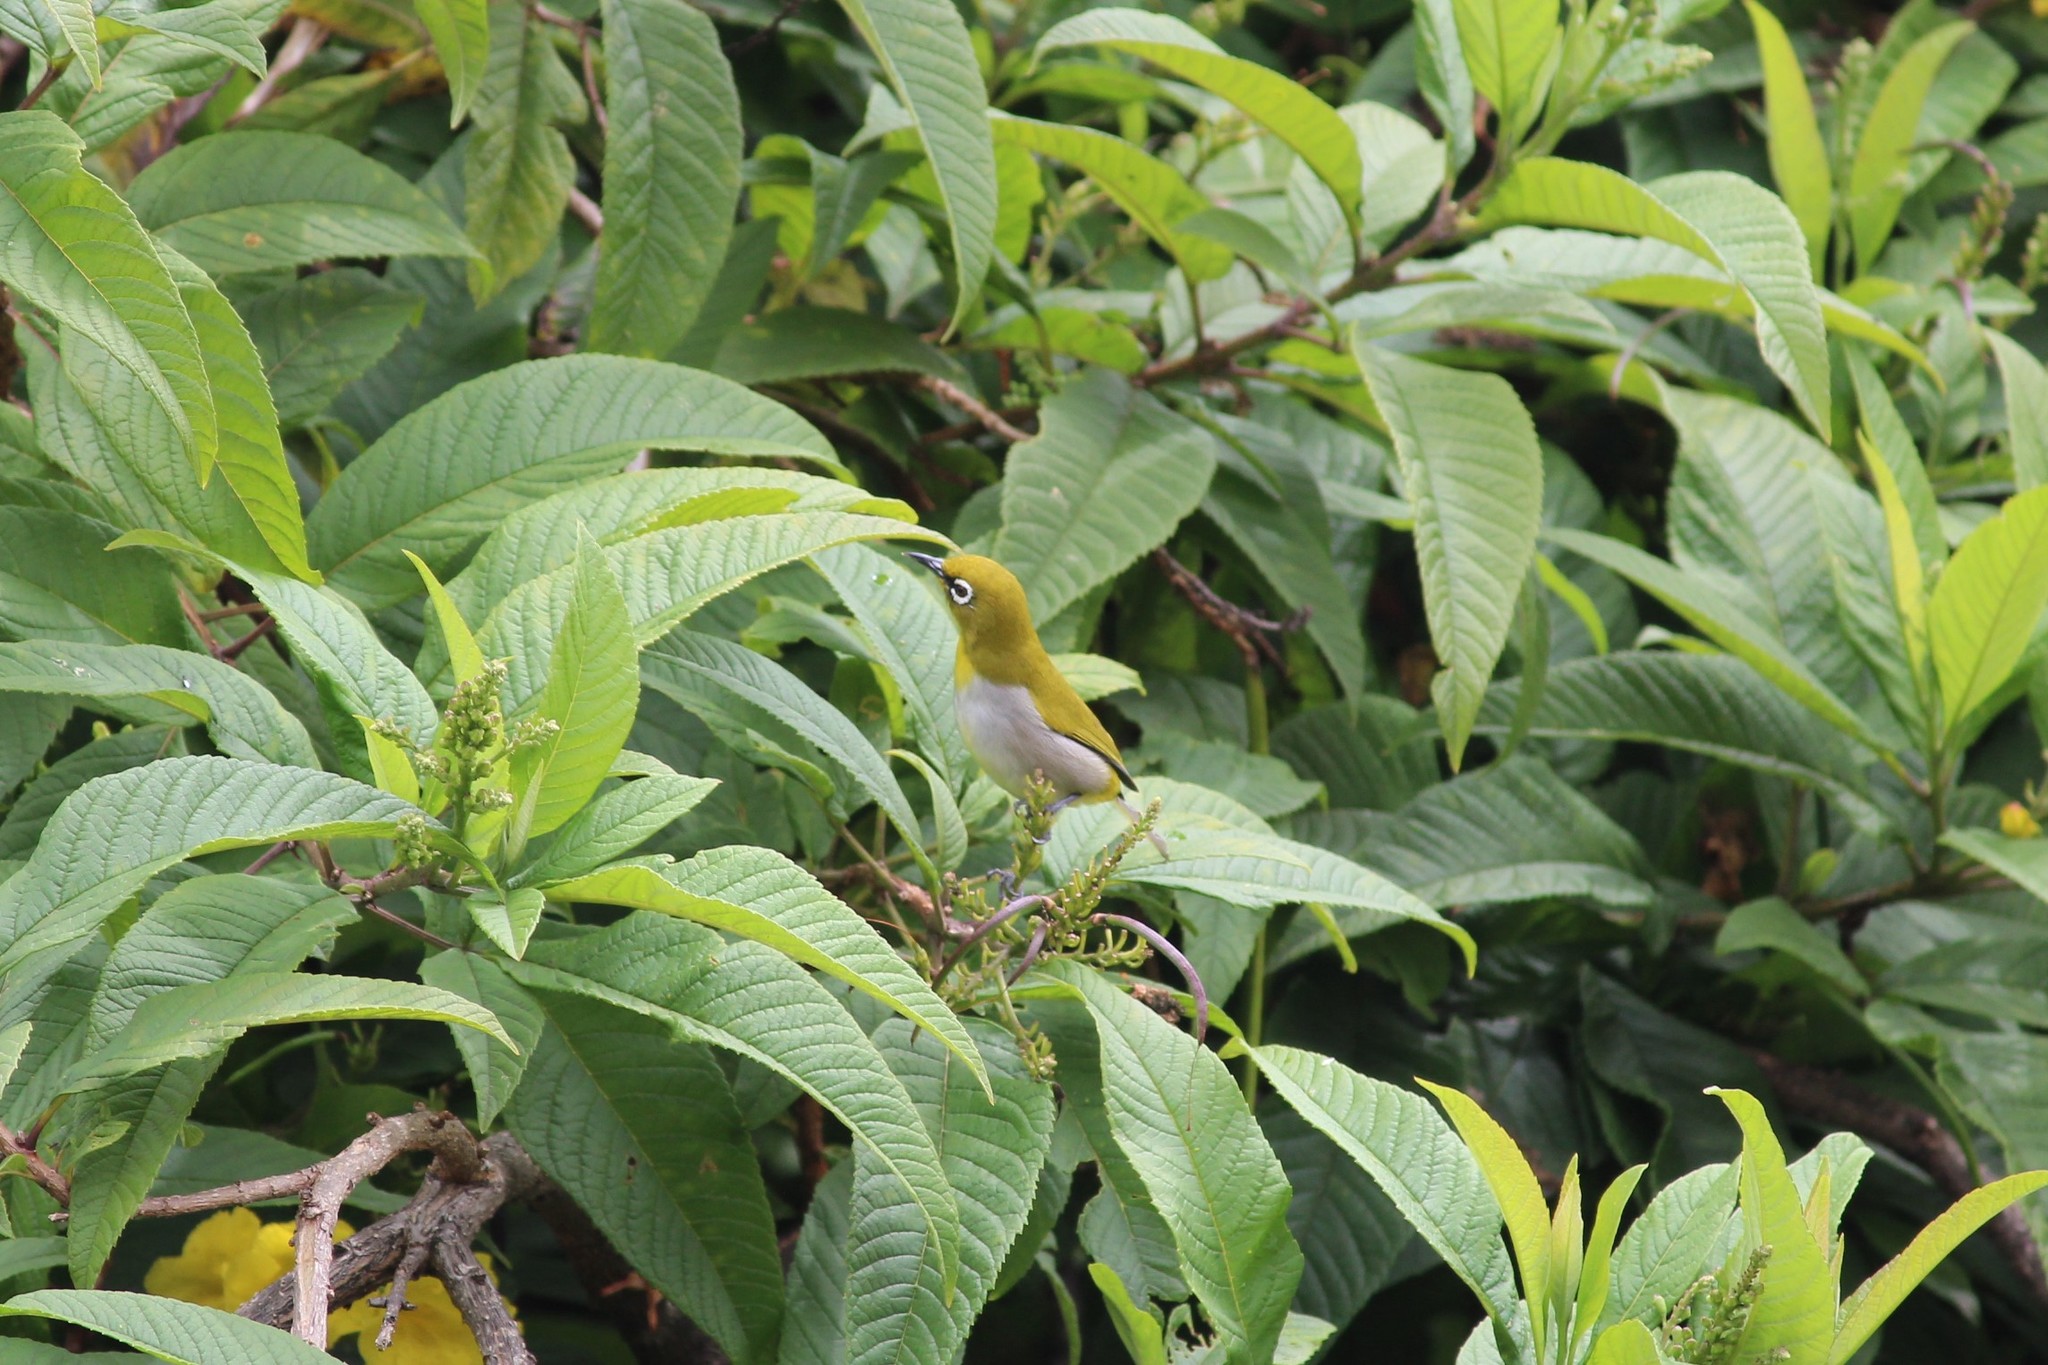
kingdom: Animalia
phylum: Chordata
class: Aves
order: Passeriformes
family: Zosteropidae
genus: Zosterops
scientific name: Zosterops palpebrosus
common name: Oriental white-eye
